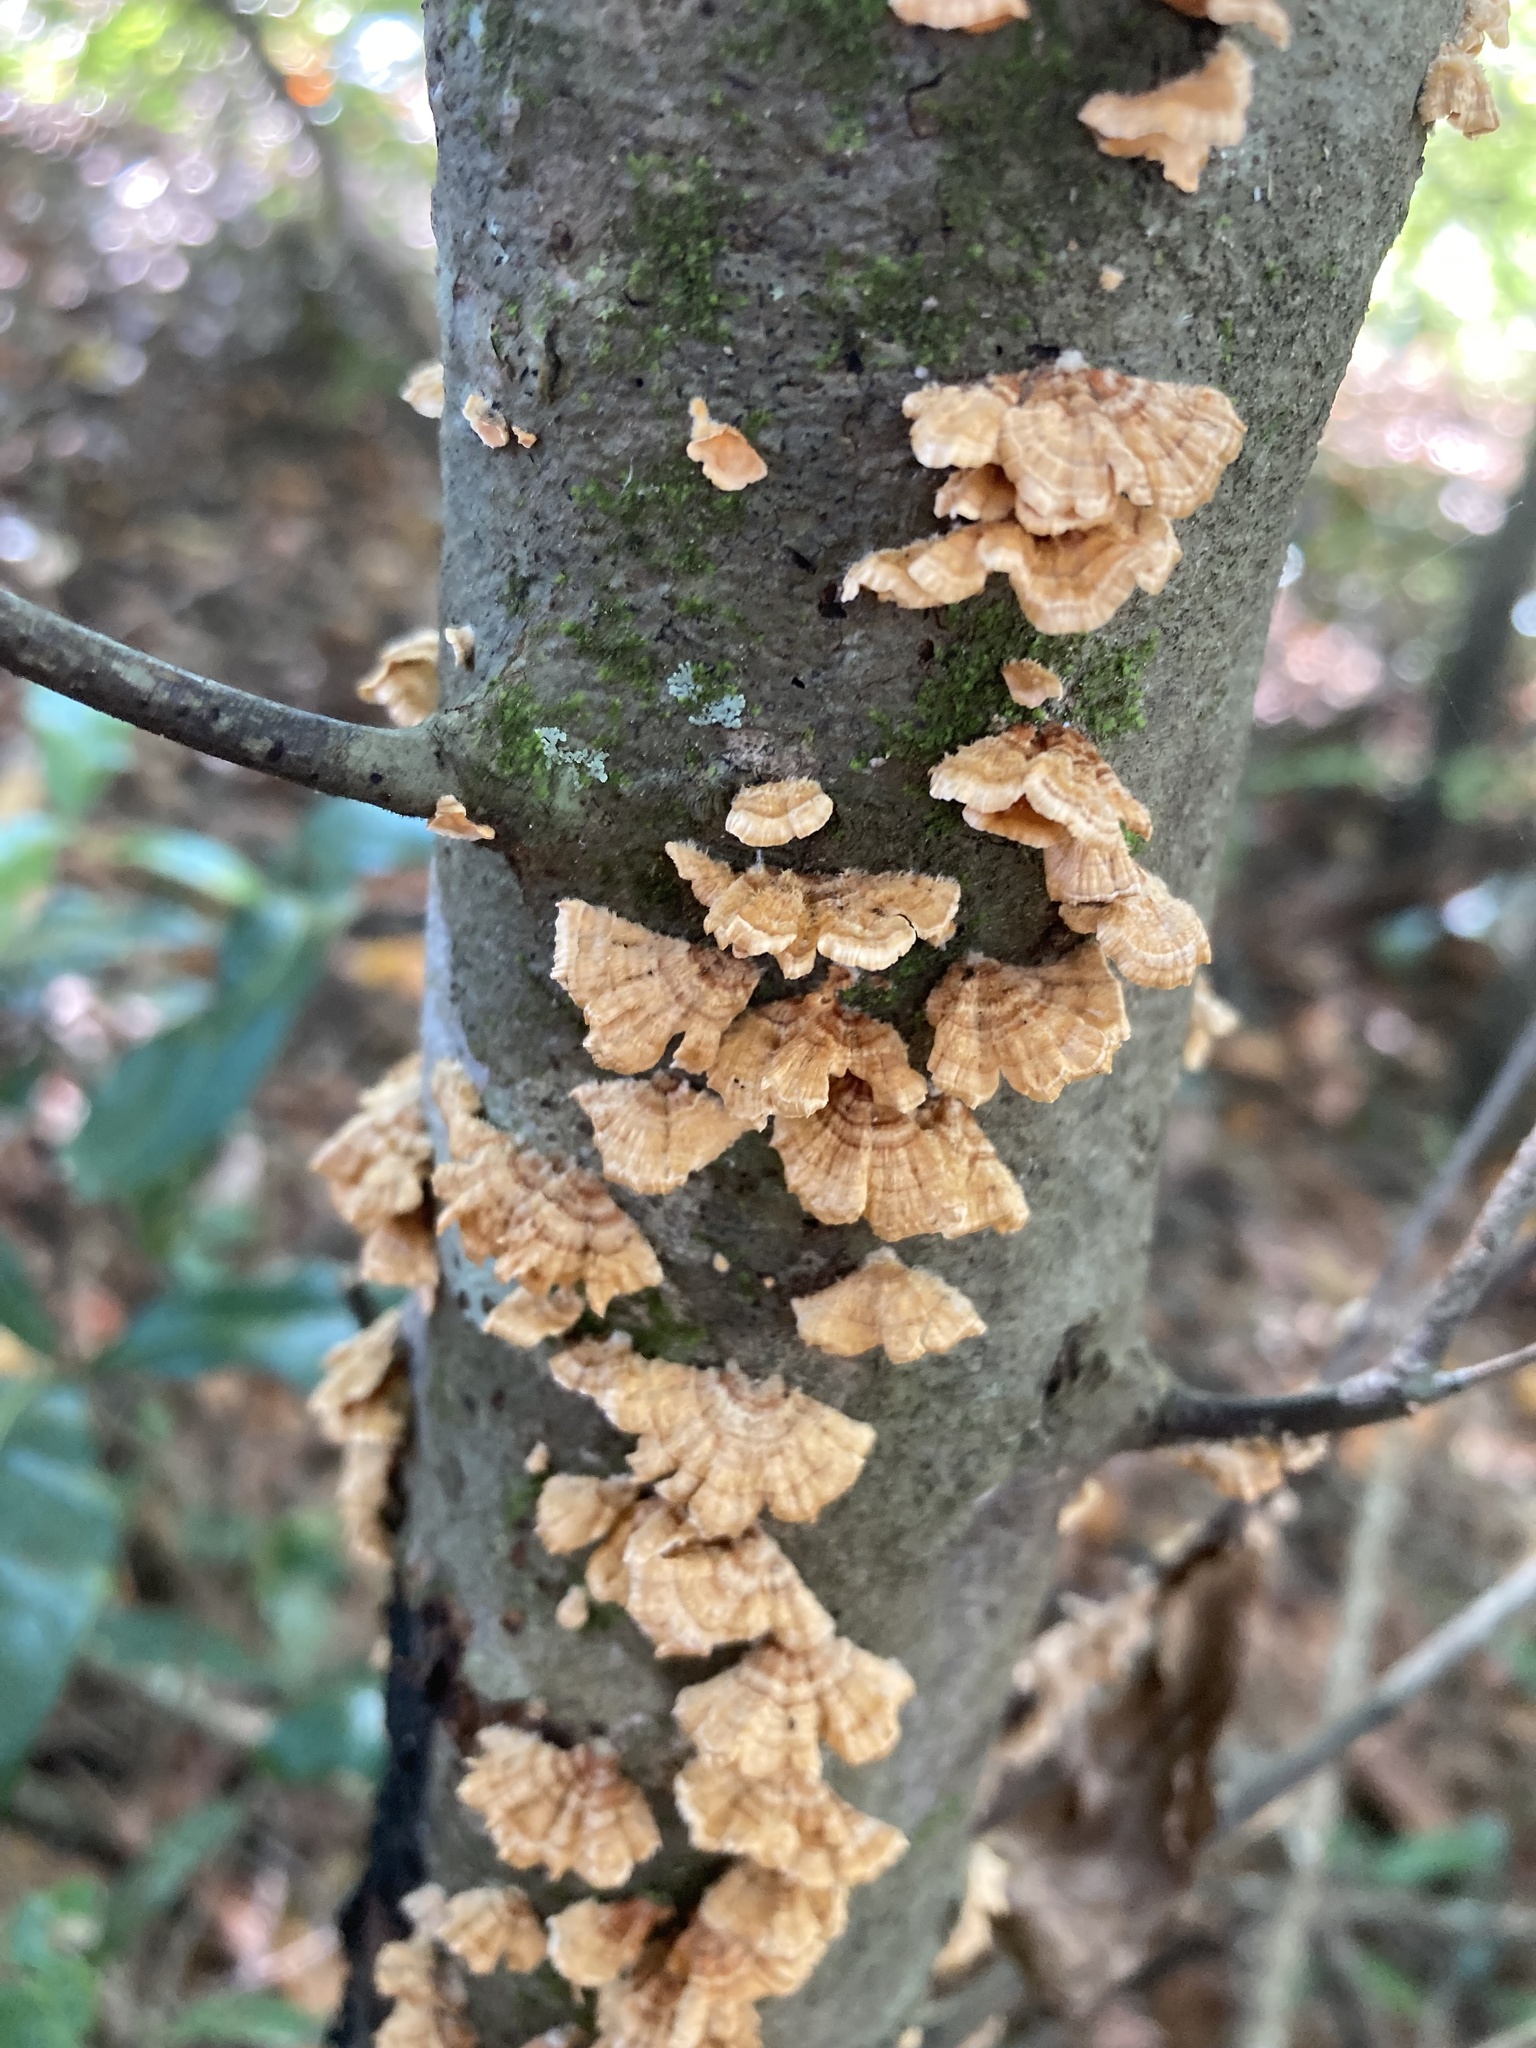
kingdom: Fungi
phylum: Basidiomycota
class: Agaricomycetes
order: Russulales
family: Stereaceae
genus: Stereum
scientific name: Stereum complicatum
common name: Crowded parchment
